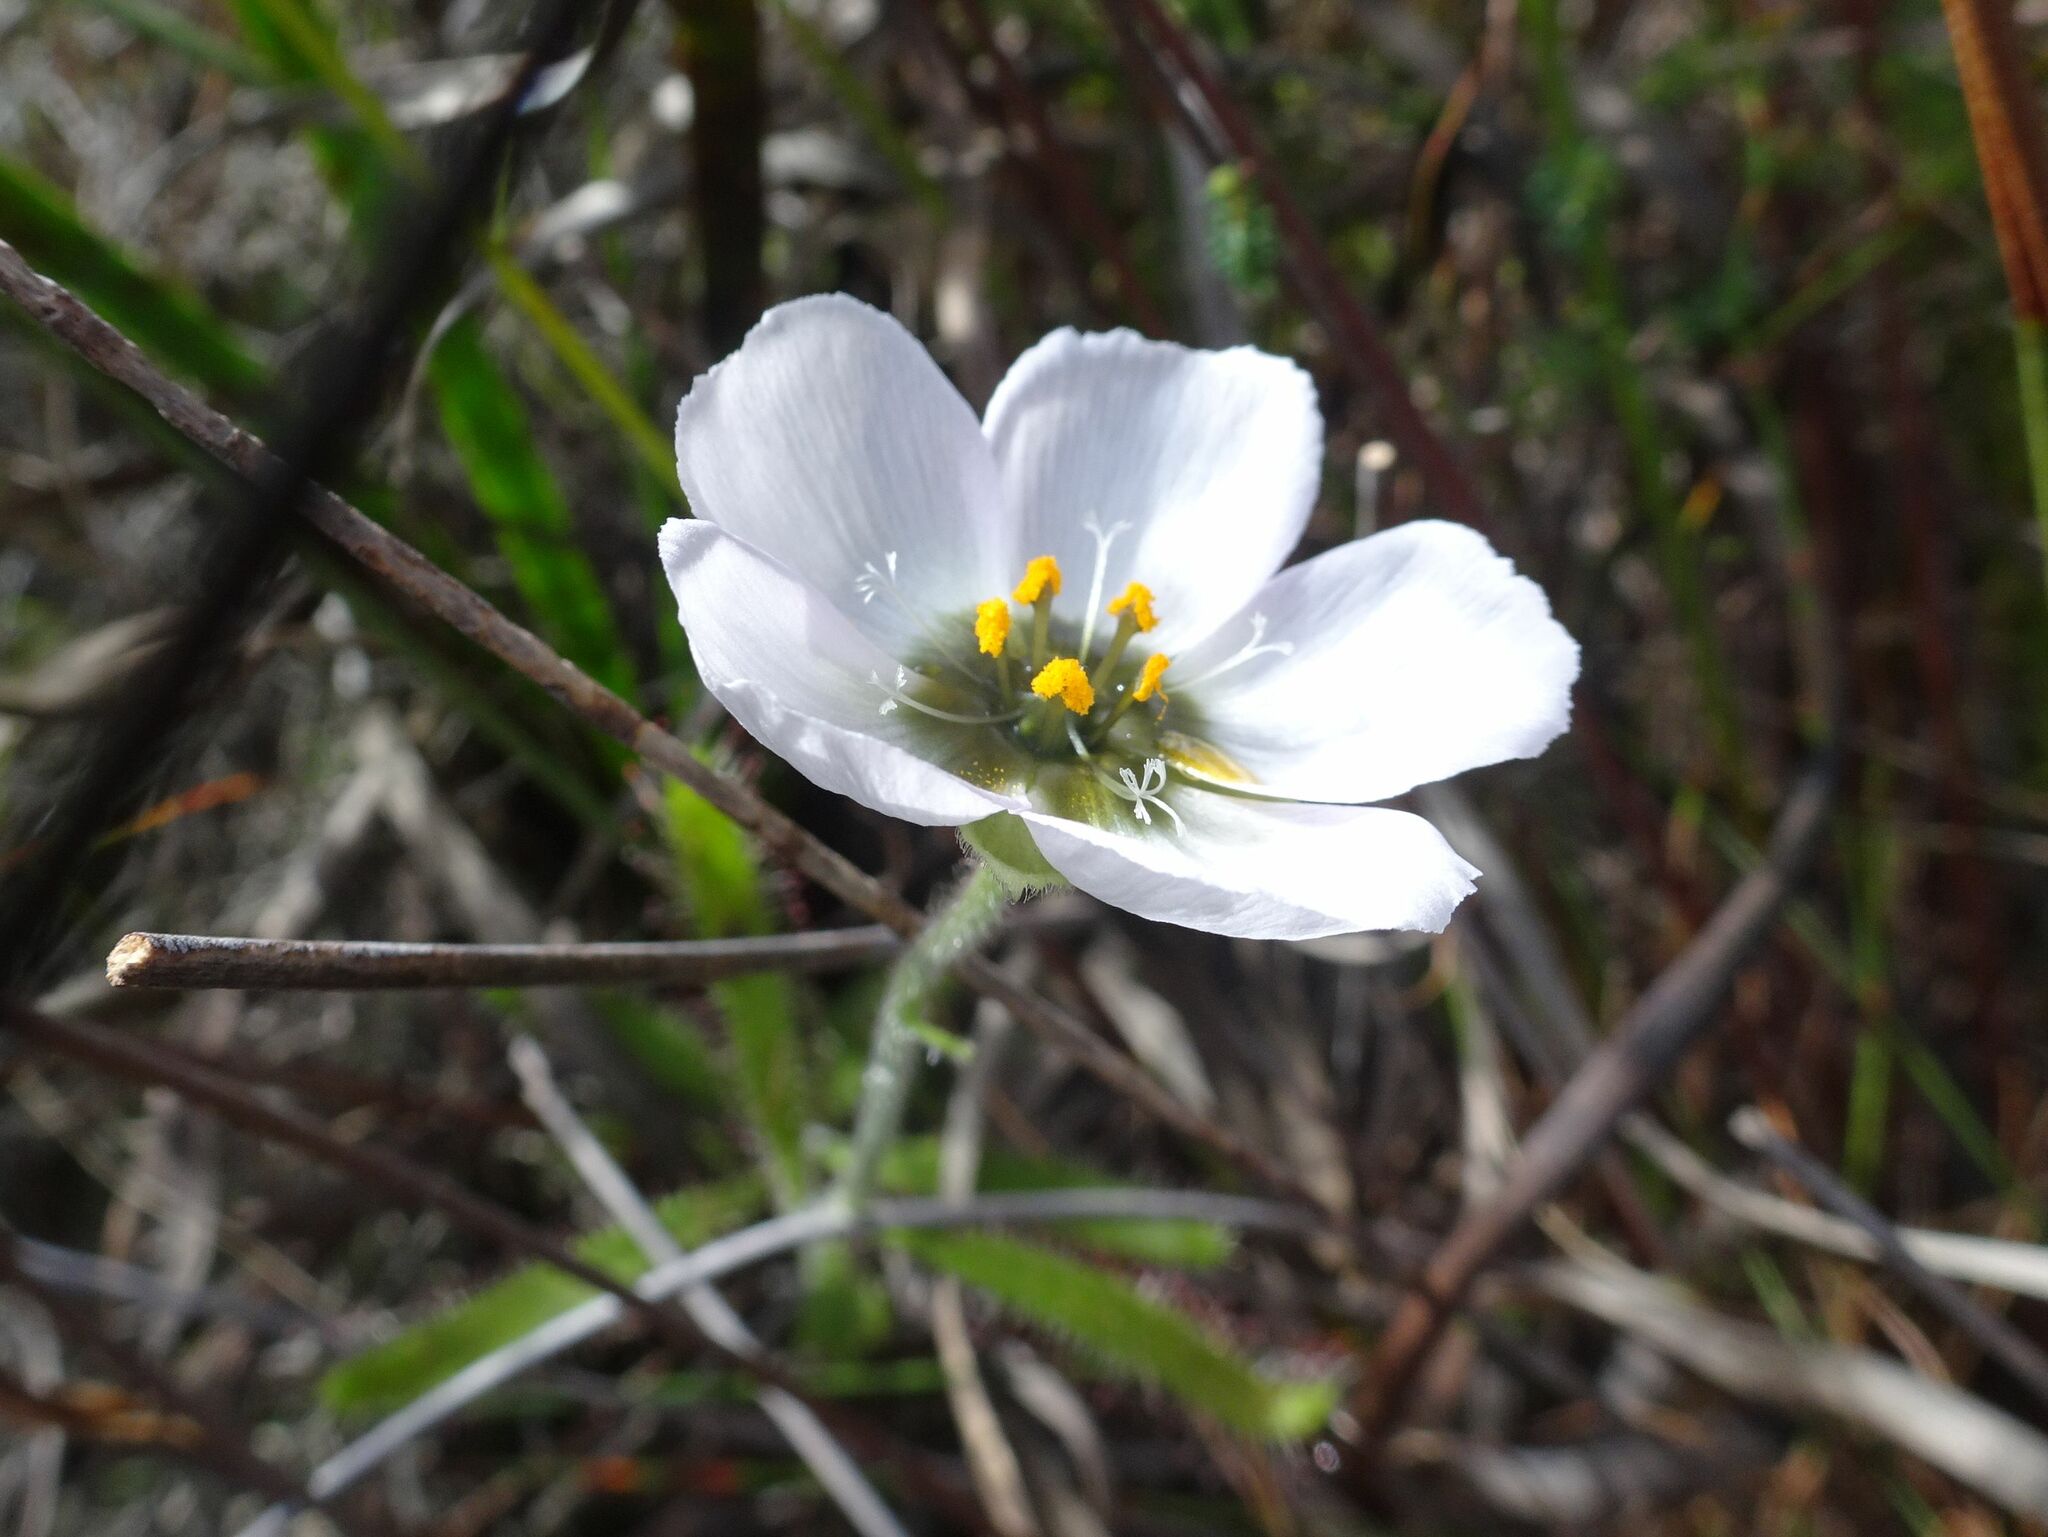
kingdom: Plantae
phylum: Tracheophyta
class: Magnoliopsida
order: Caryophyllales
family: Droseraceae
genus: Drosera
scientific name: Drosera cistiflora
